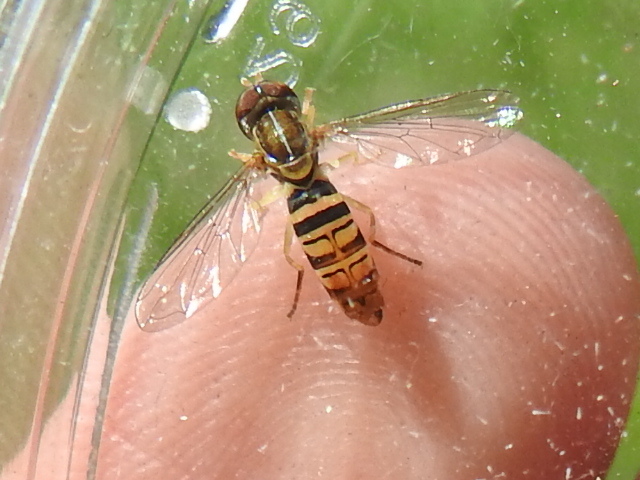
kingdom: Animalia
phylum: Arthropoda
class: Insecta
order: Diptera
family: Syrphidae
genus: Toxomerus
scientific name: Toxomerus politus
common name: Maize calligrapher
